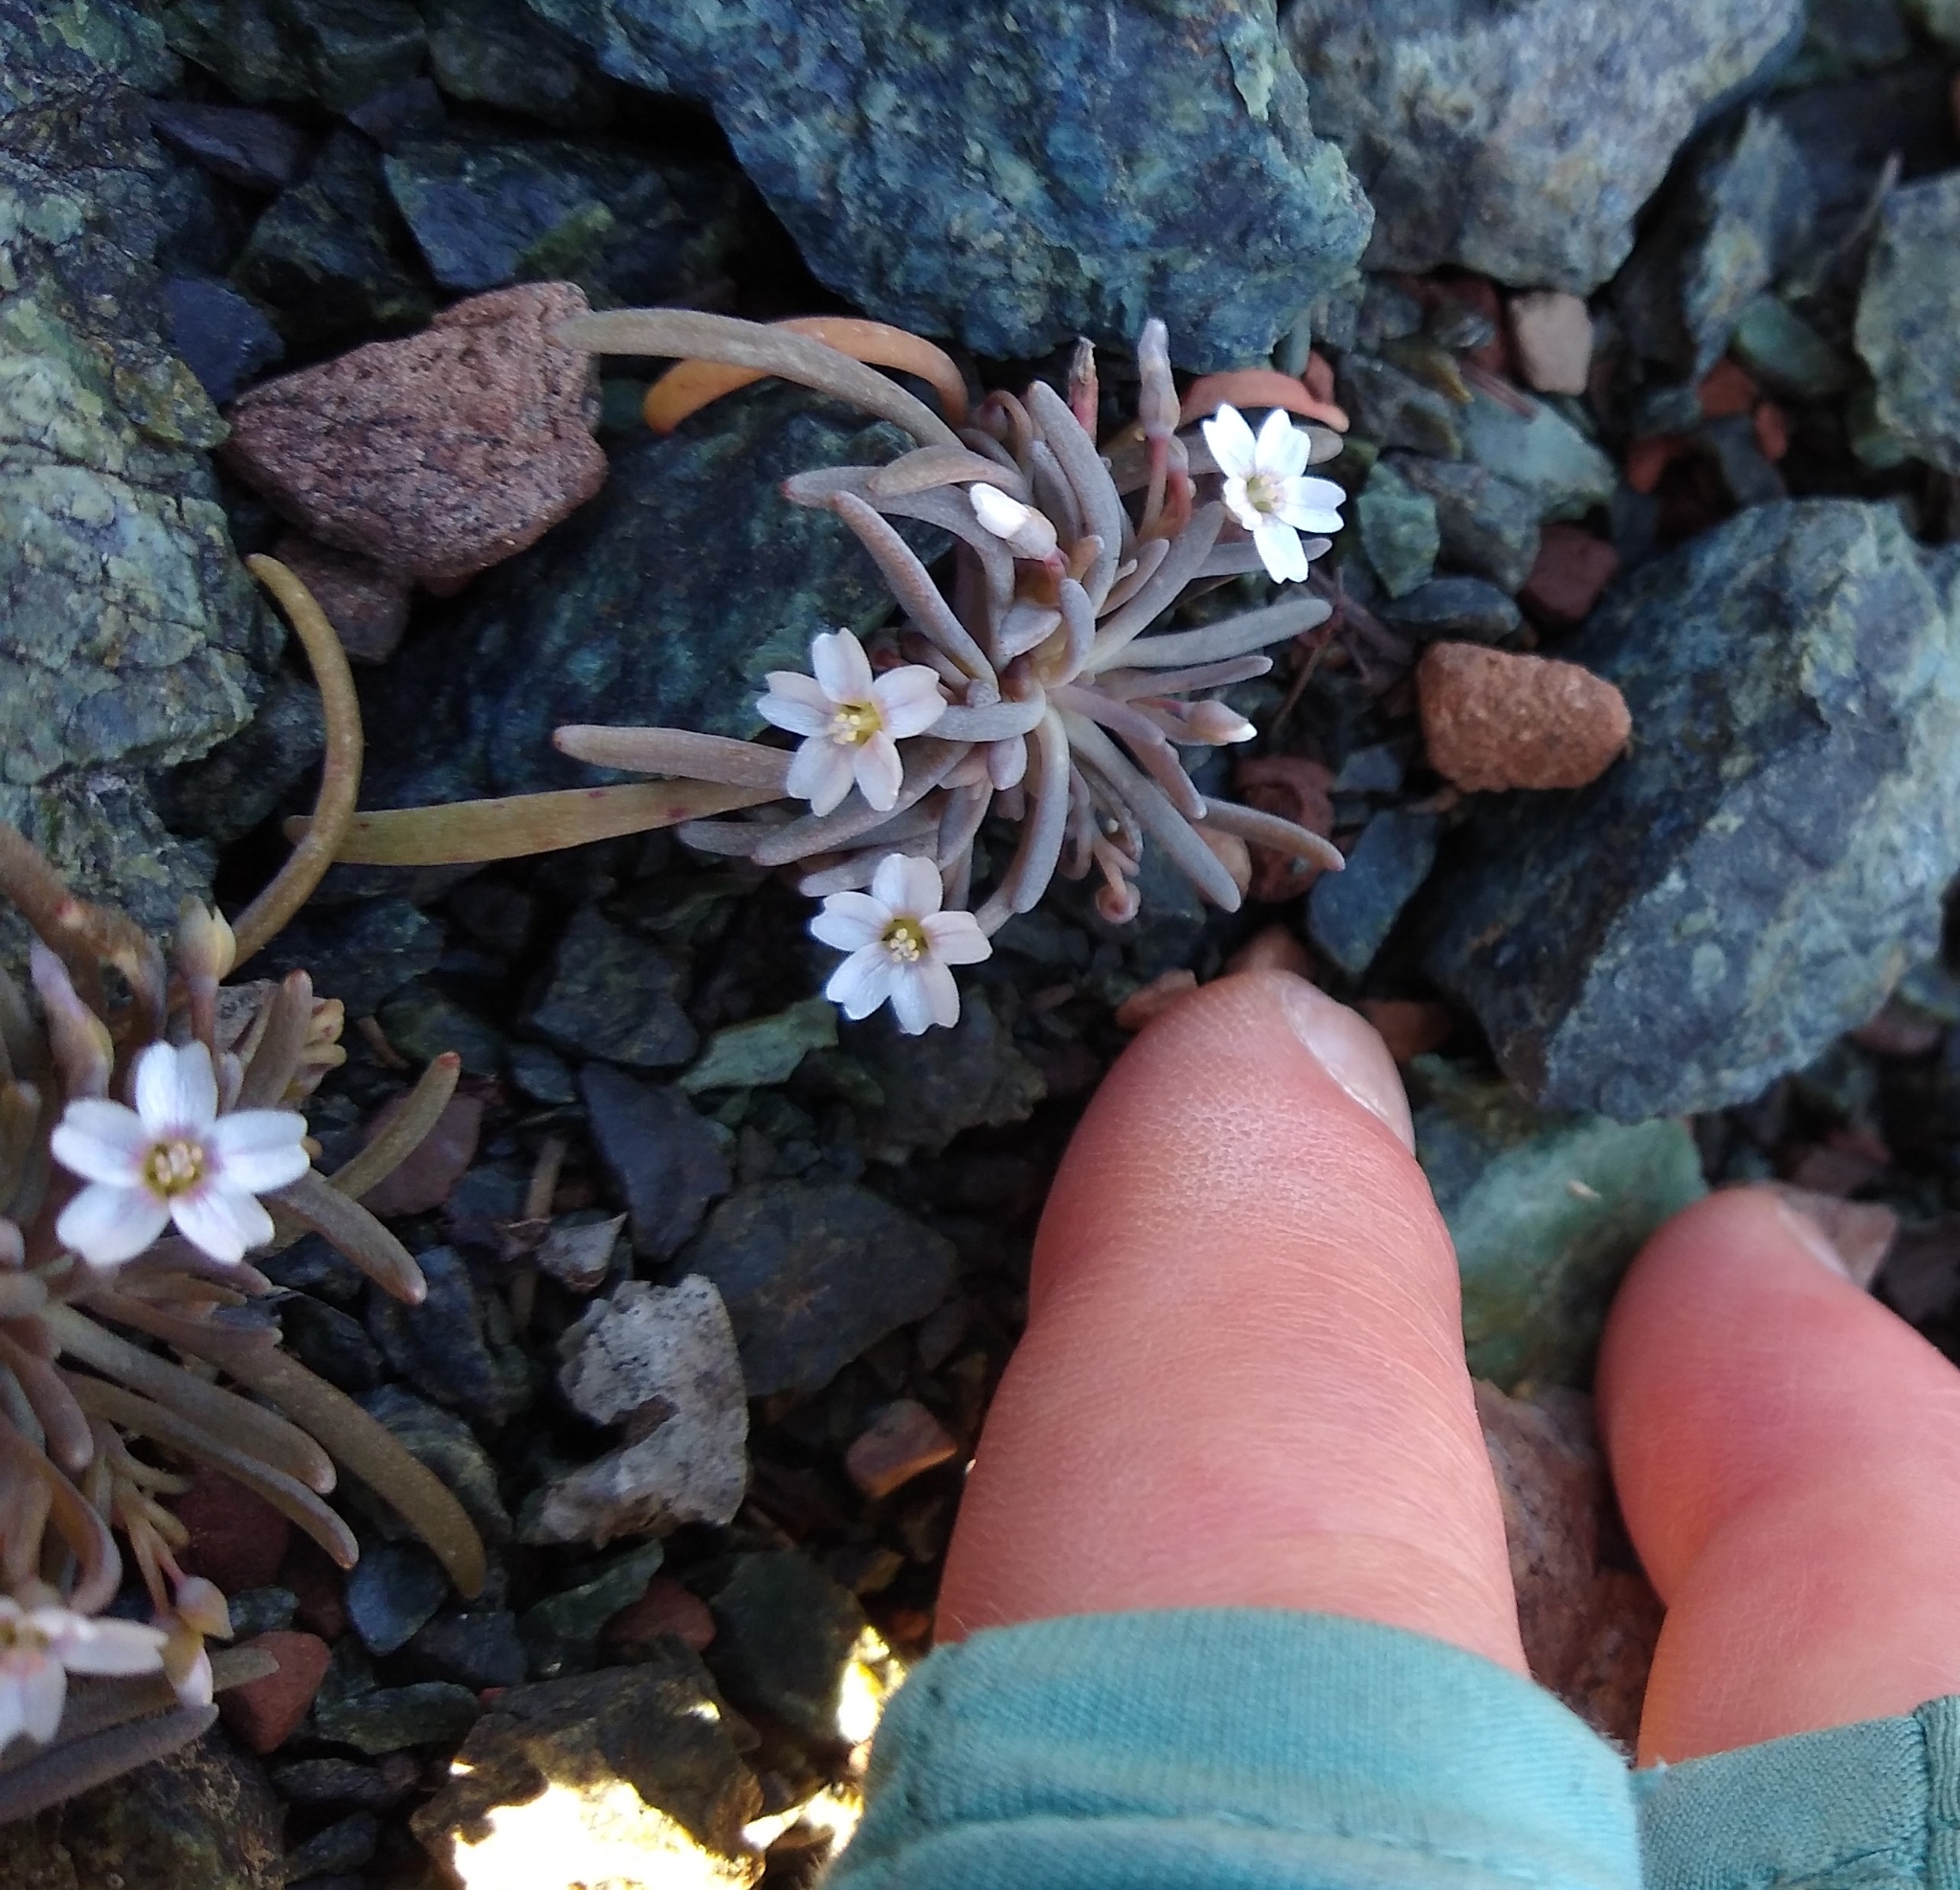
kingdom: Plantae
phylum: Tracheophyta
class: Magnoliopsida
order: Caryophyllales
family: Montiaceae
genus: Claytonia
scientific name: Claytonia exigua
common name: Pale spring beauty
